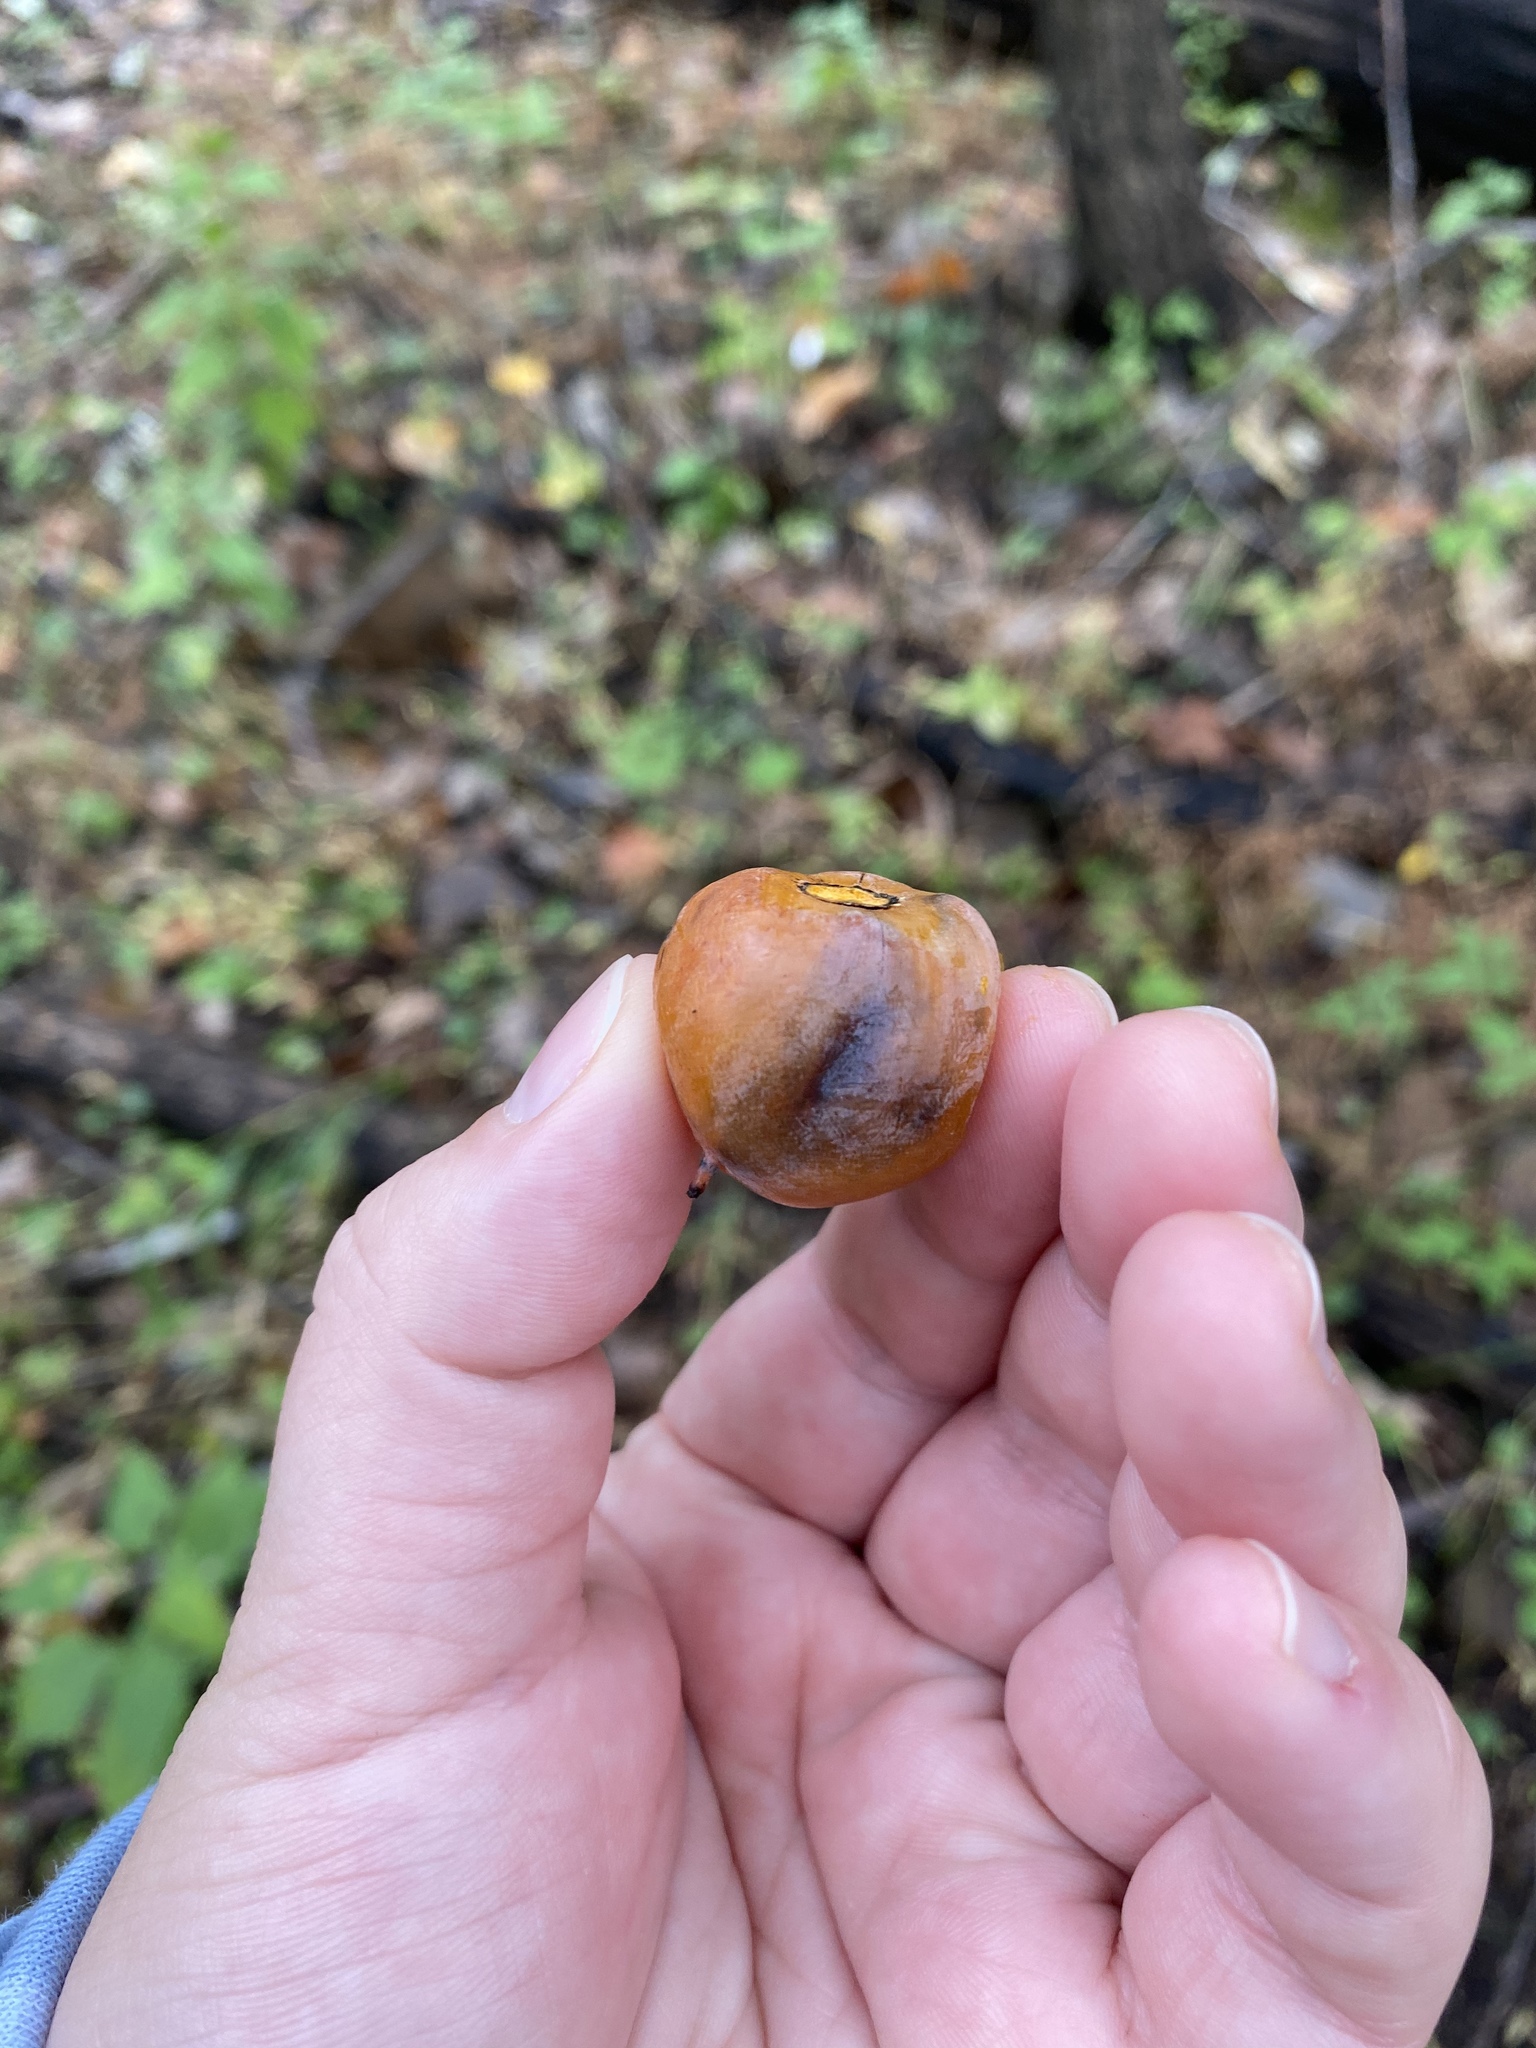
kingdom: Plantae
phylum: Tracheophyta
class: Magnoliopsida
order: Ericales
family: Ebenaceae
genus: Diospyros
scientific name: Diospyros virginiana
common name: Persimmon
